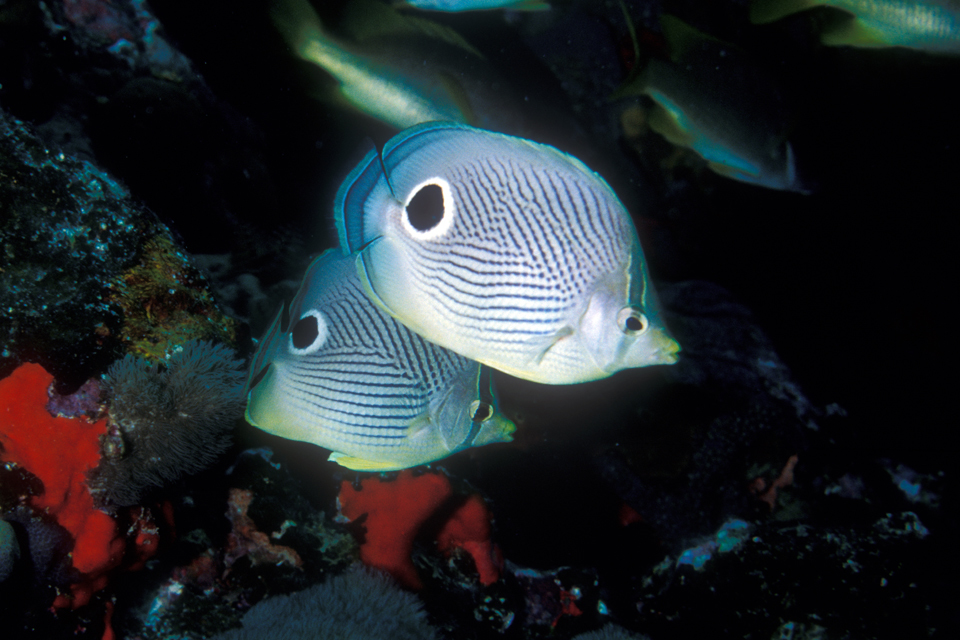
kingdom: Animalia
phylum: Chordata
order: Perciformes
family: Chaetodontidae
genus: Chaetodon
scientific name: Chaetodon capistratus
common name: Kete
